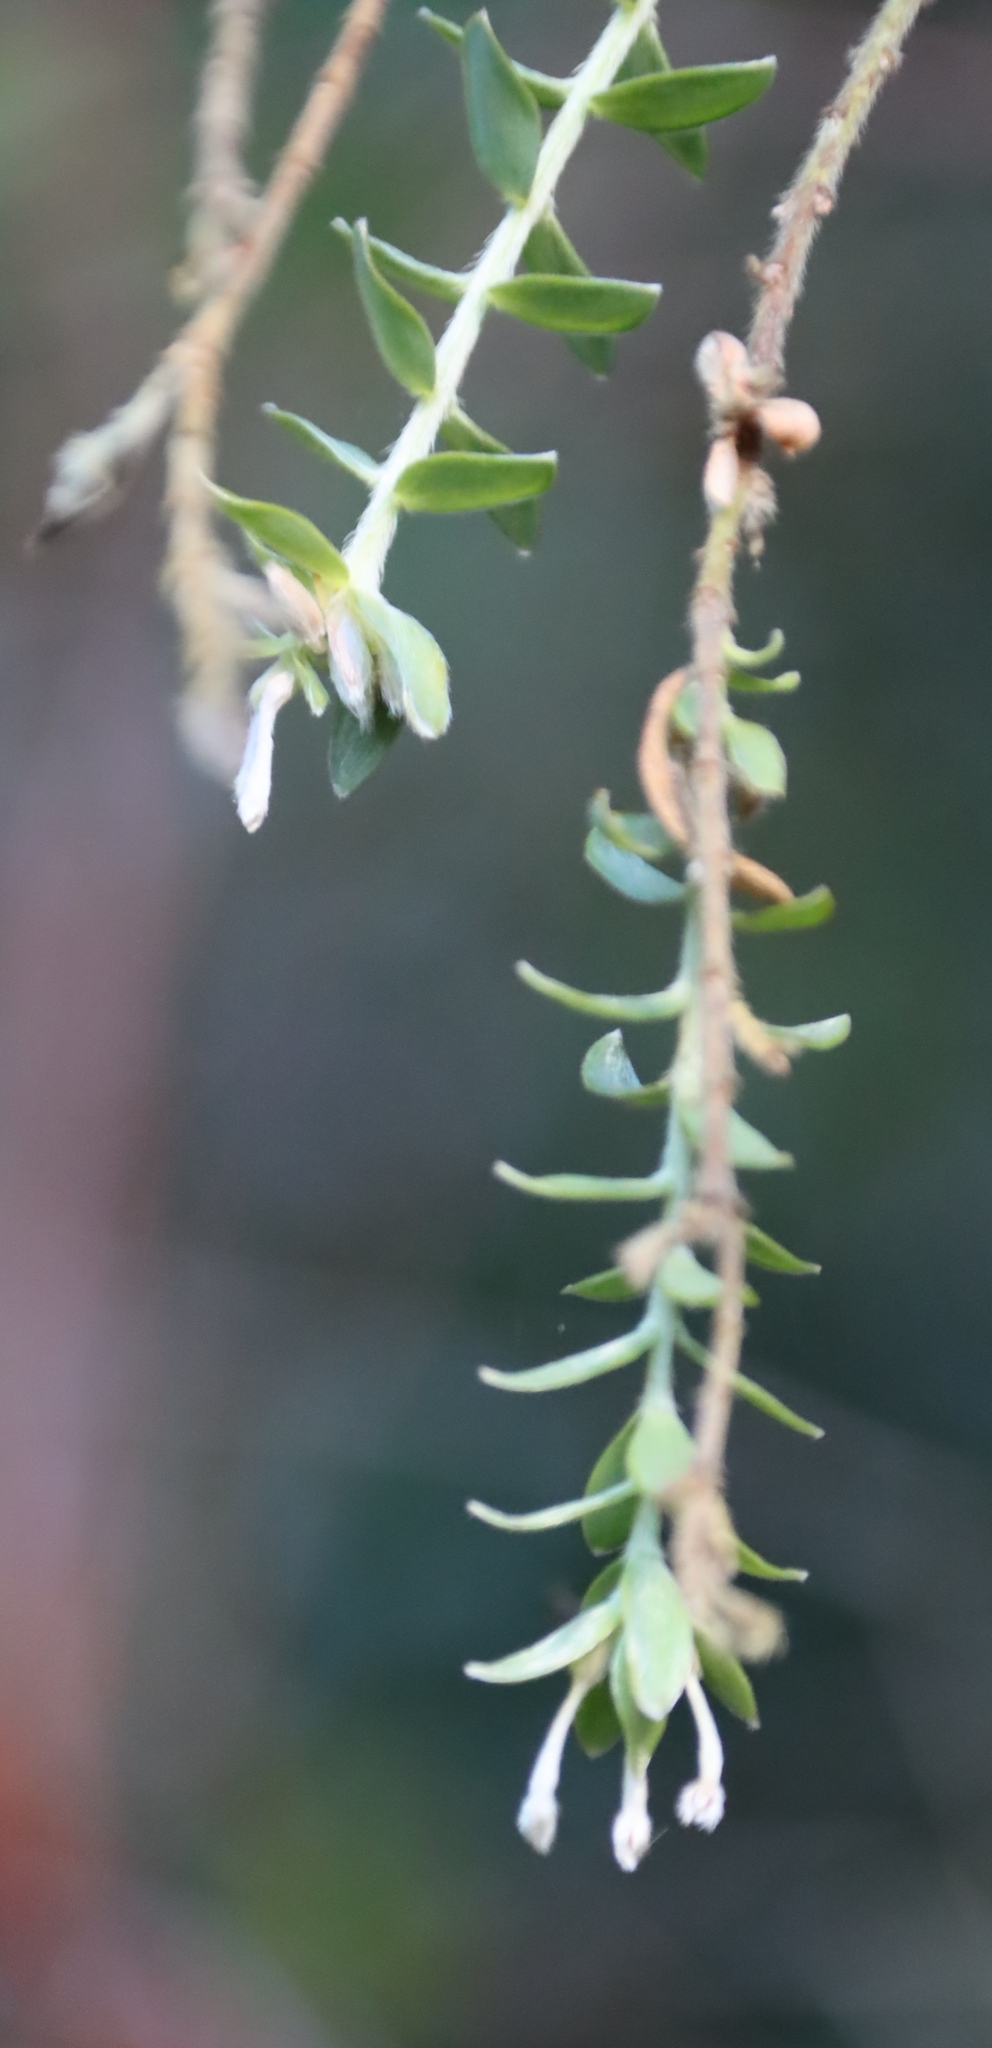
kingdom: Plantae
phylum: Tracheophyta
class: Magnoliopsida
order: Malvales
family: Thymelaeaceae
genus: Gnidia
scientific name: Gnidia sericea
